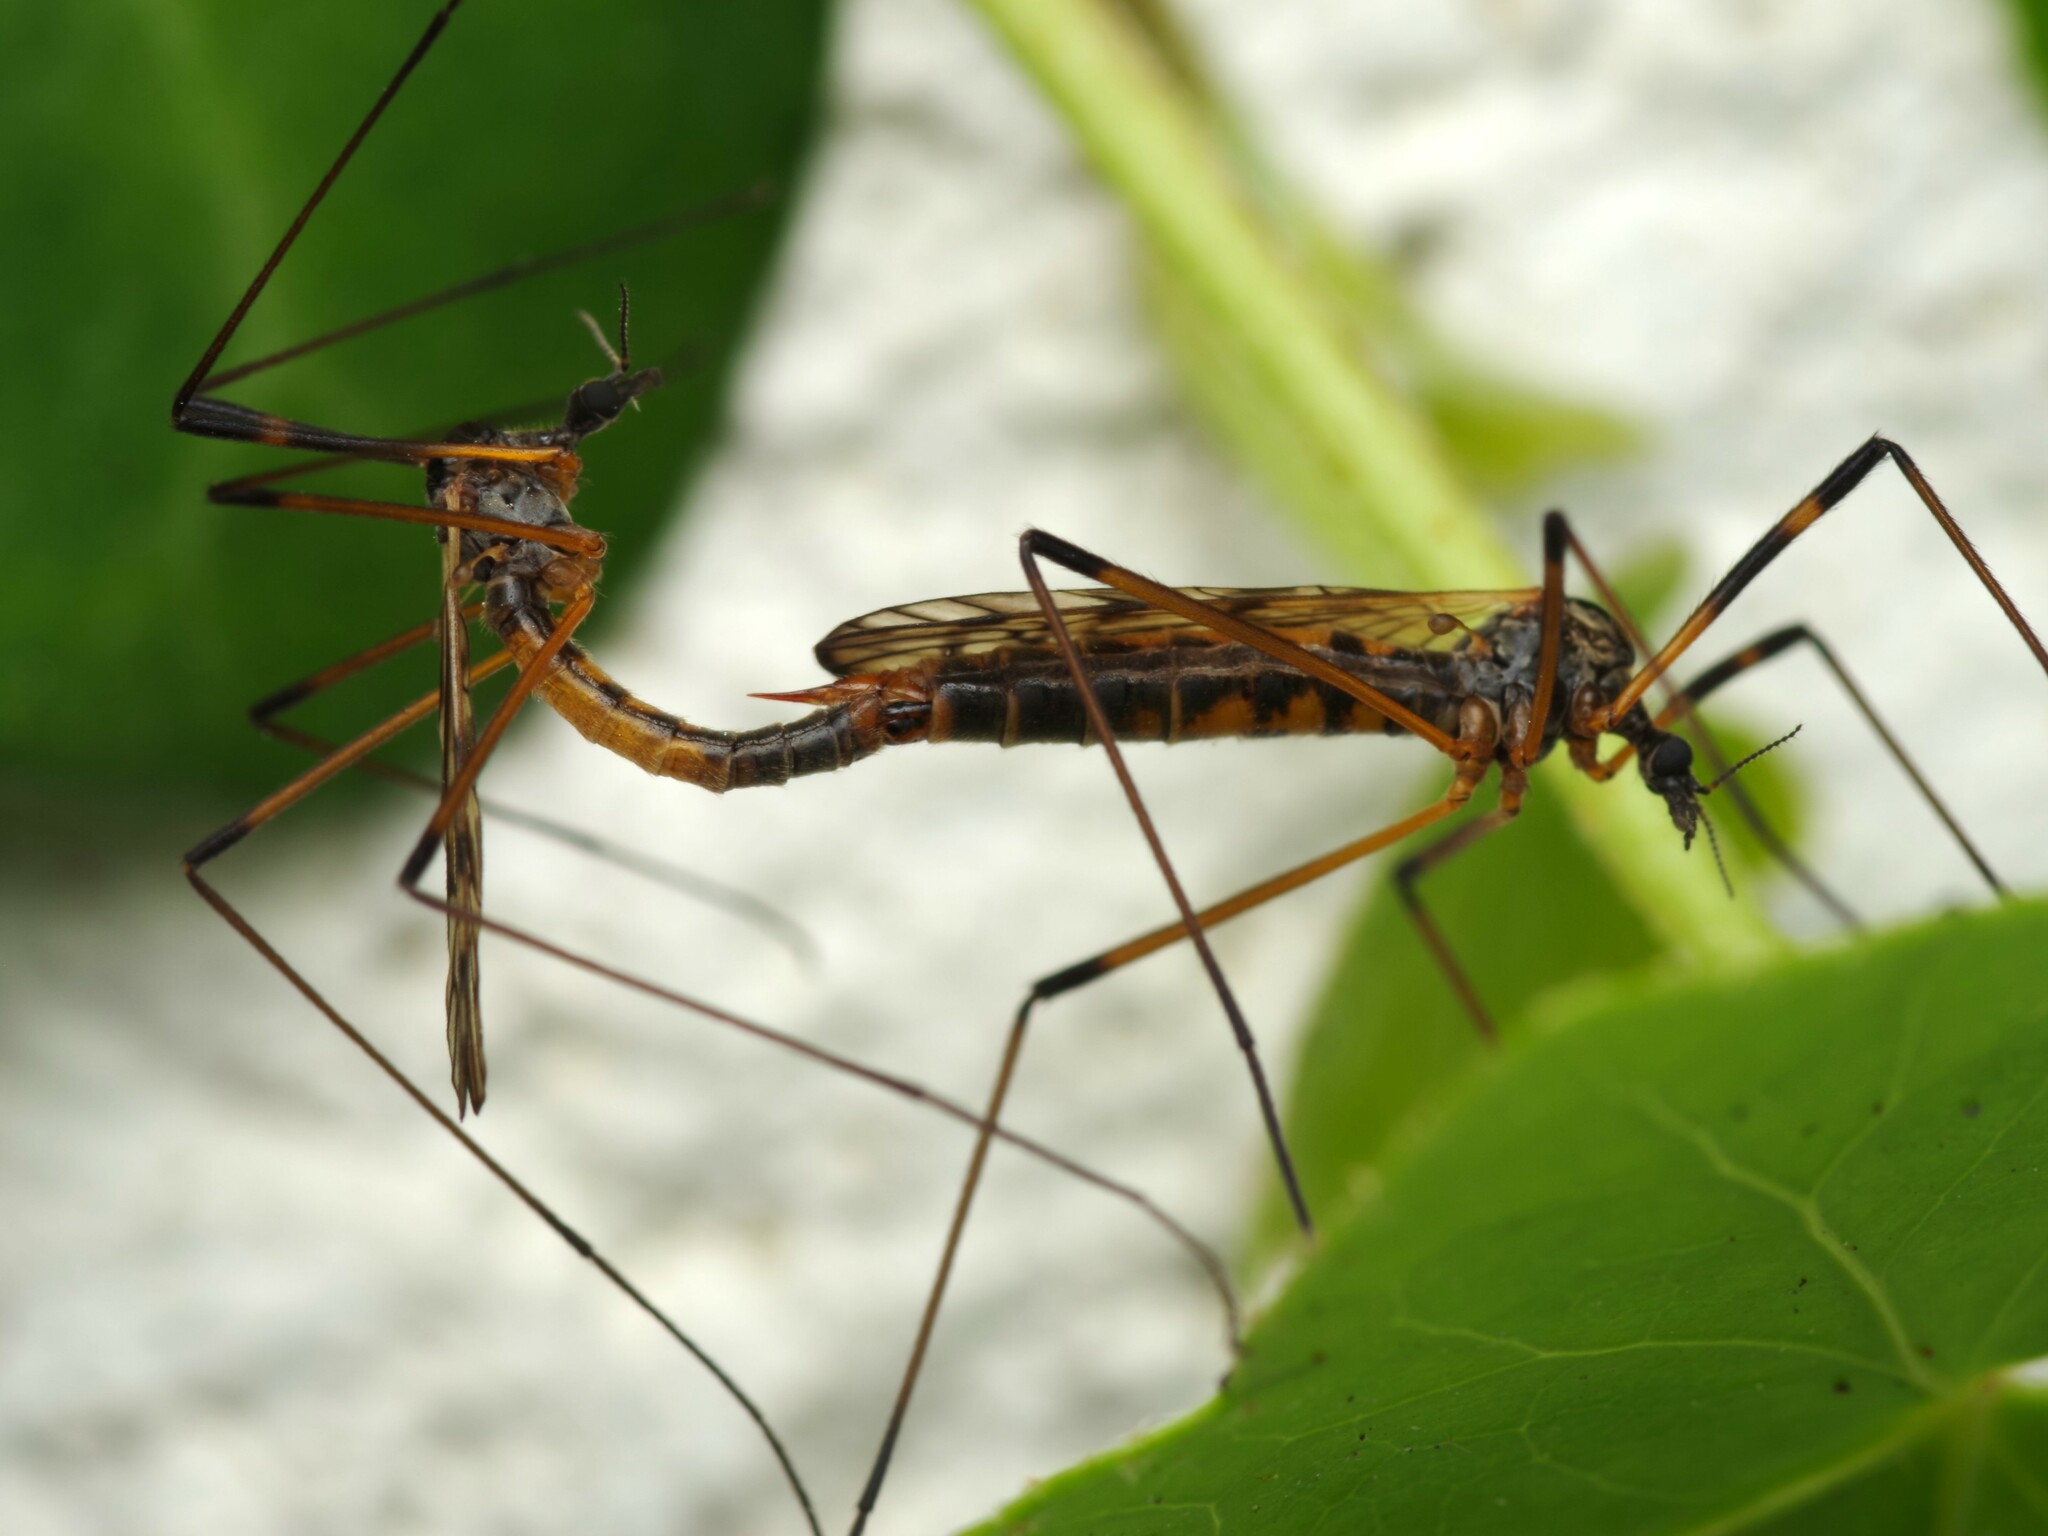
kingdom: Animalia
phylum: Arthropoda
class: Insecta
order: Diptera
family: Limoniidae
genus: Limonia
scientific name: Limonia maculipennis
